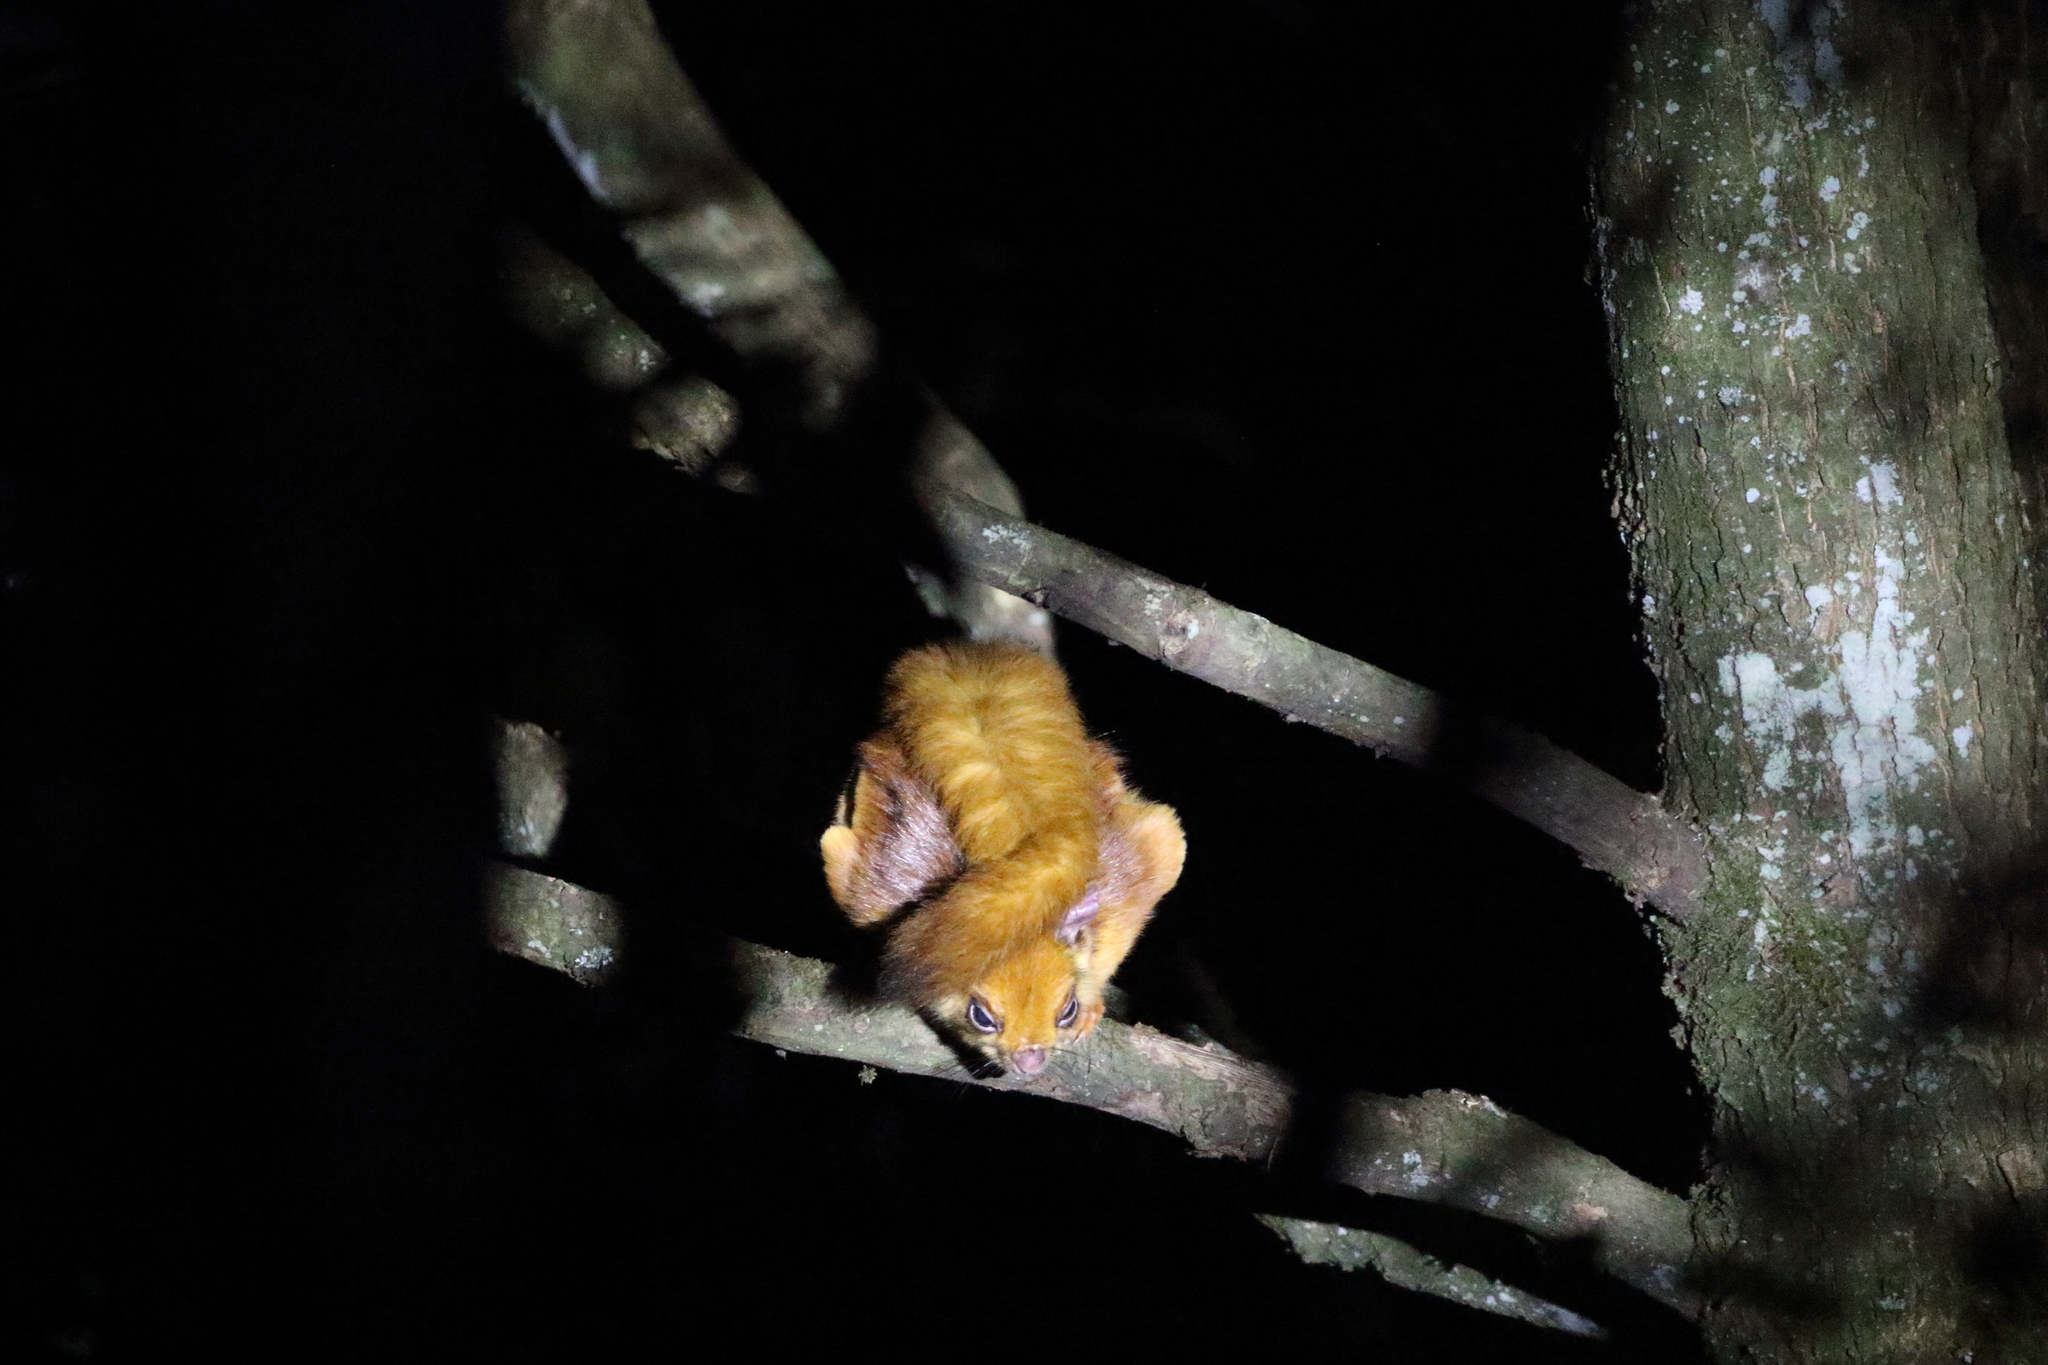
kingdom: Animalia
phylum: Chordata
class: Mammalia
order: Rodentia
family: Sciuridae
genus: Petaurista
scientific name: Petaurista petaurista
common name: Red giant flying squirrel
